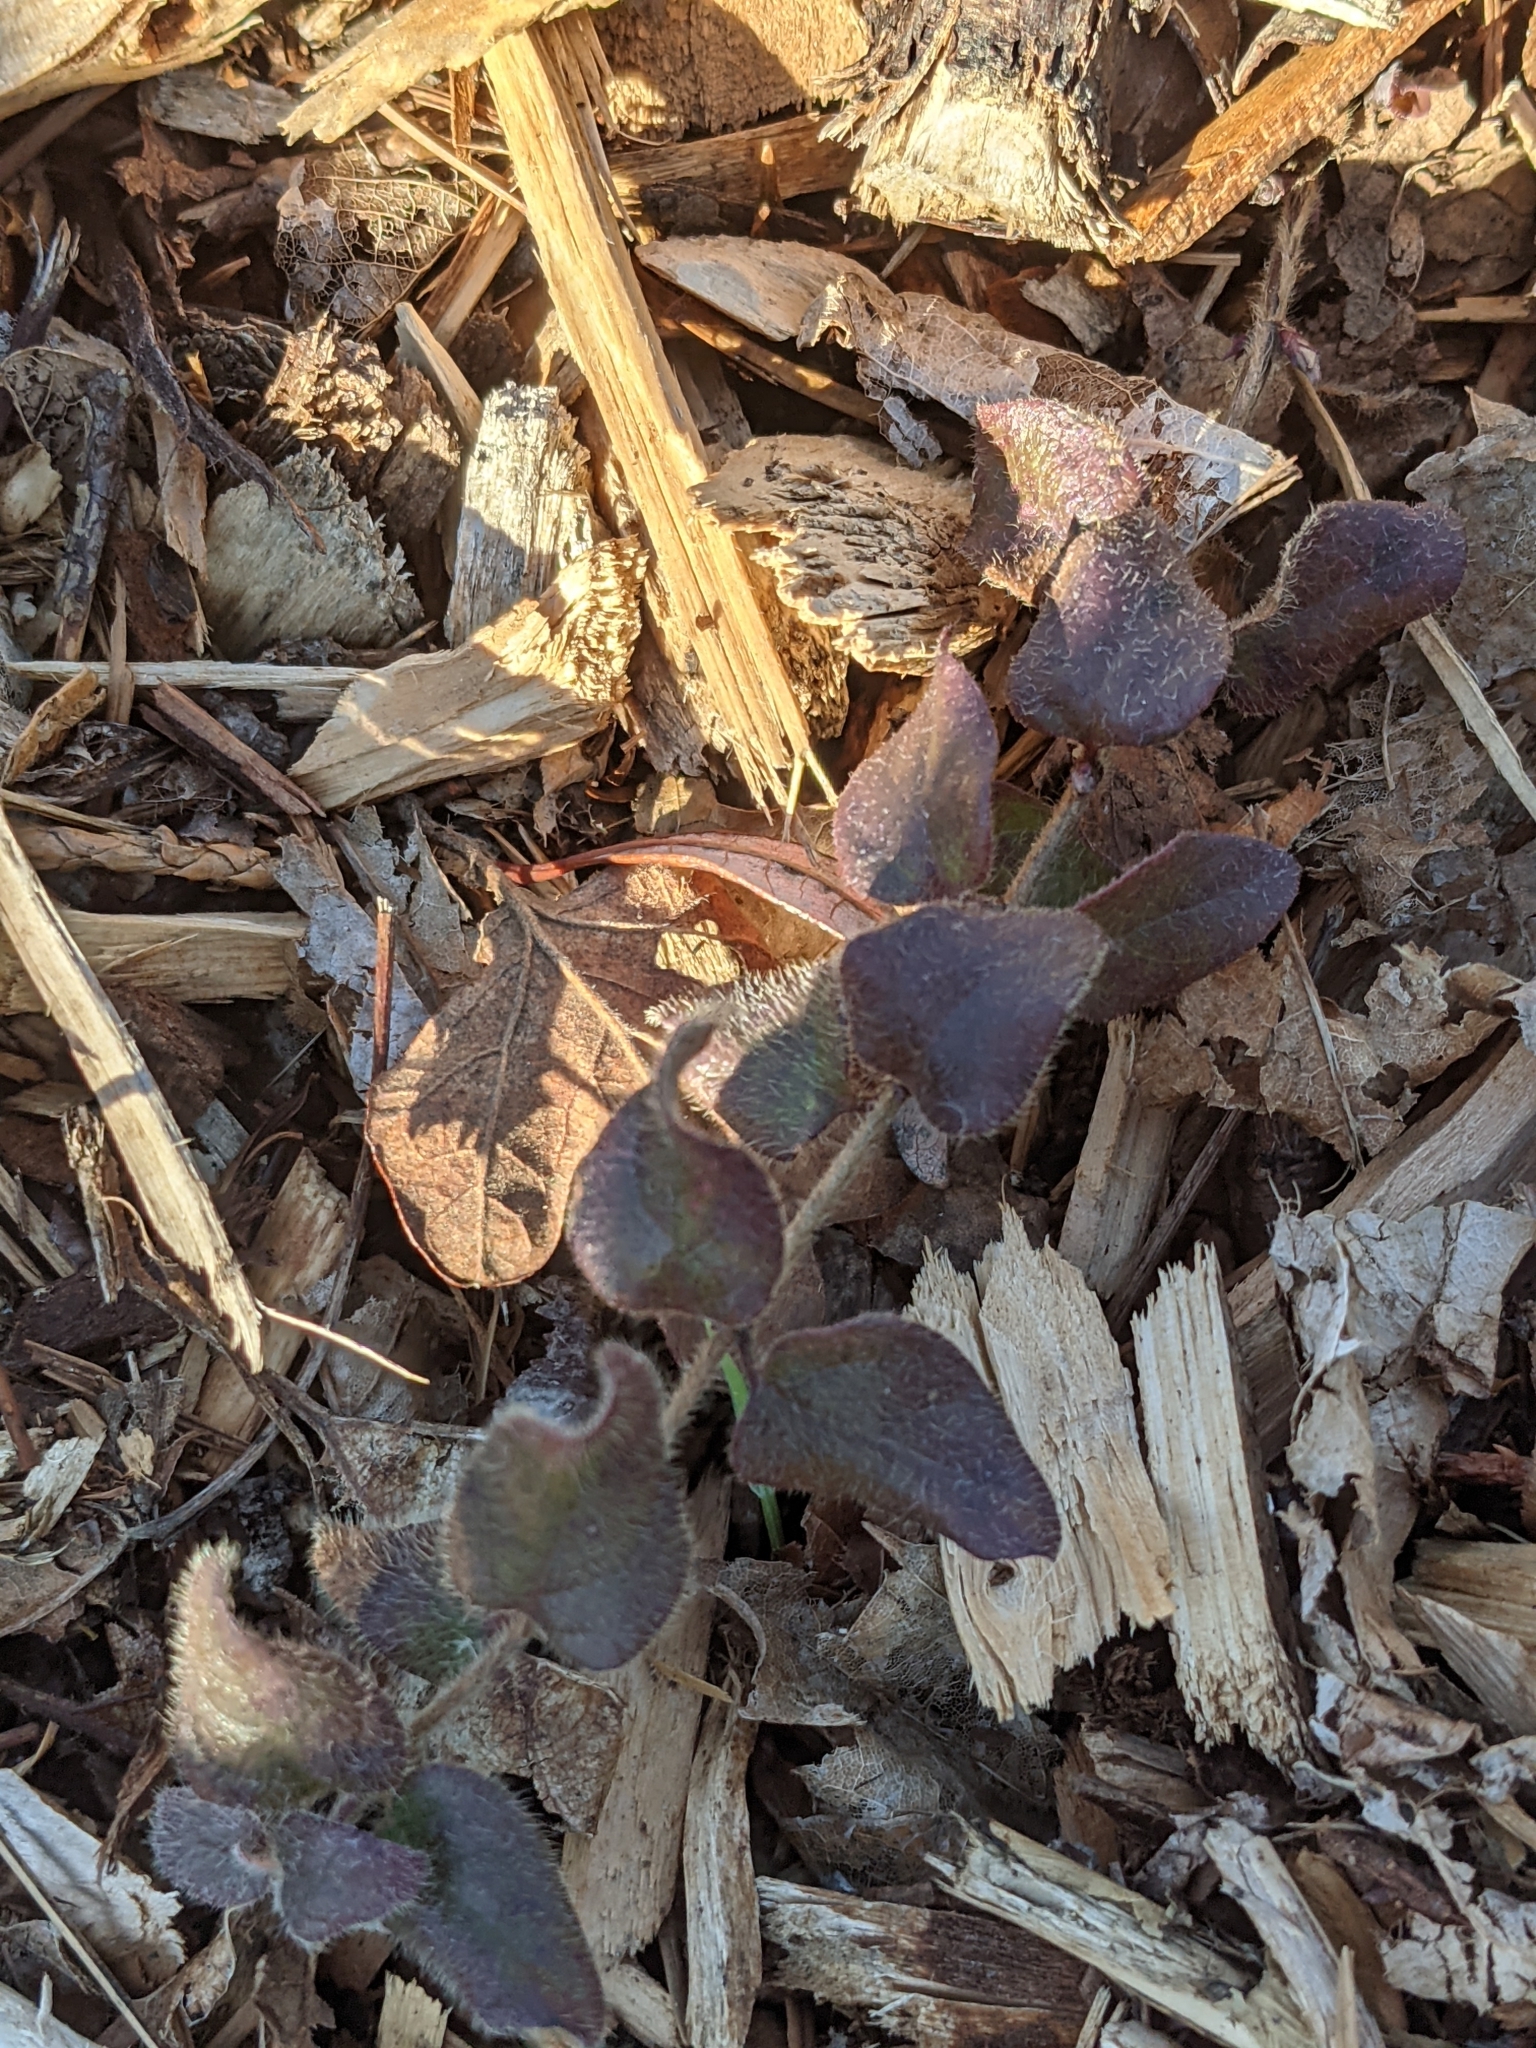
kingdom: Plantae
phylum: Tracheophyta
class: Magnoliopsida
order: Dipsacales
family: Caprifoliaceae
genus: Lonicera
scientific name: Lonicera hispidula
